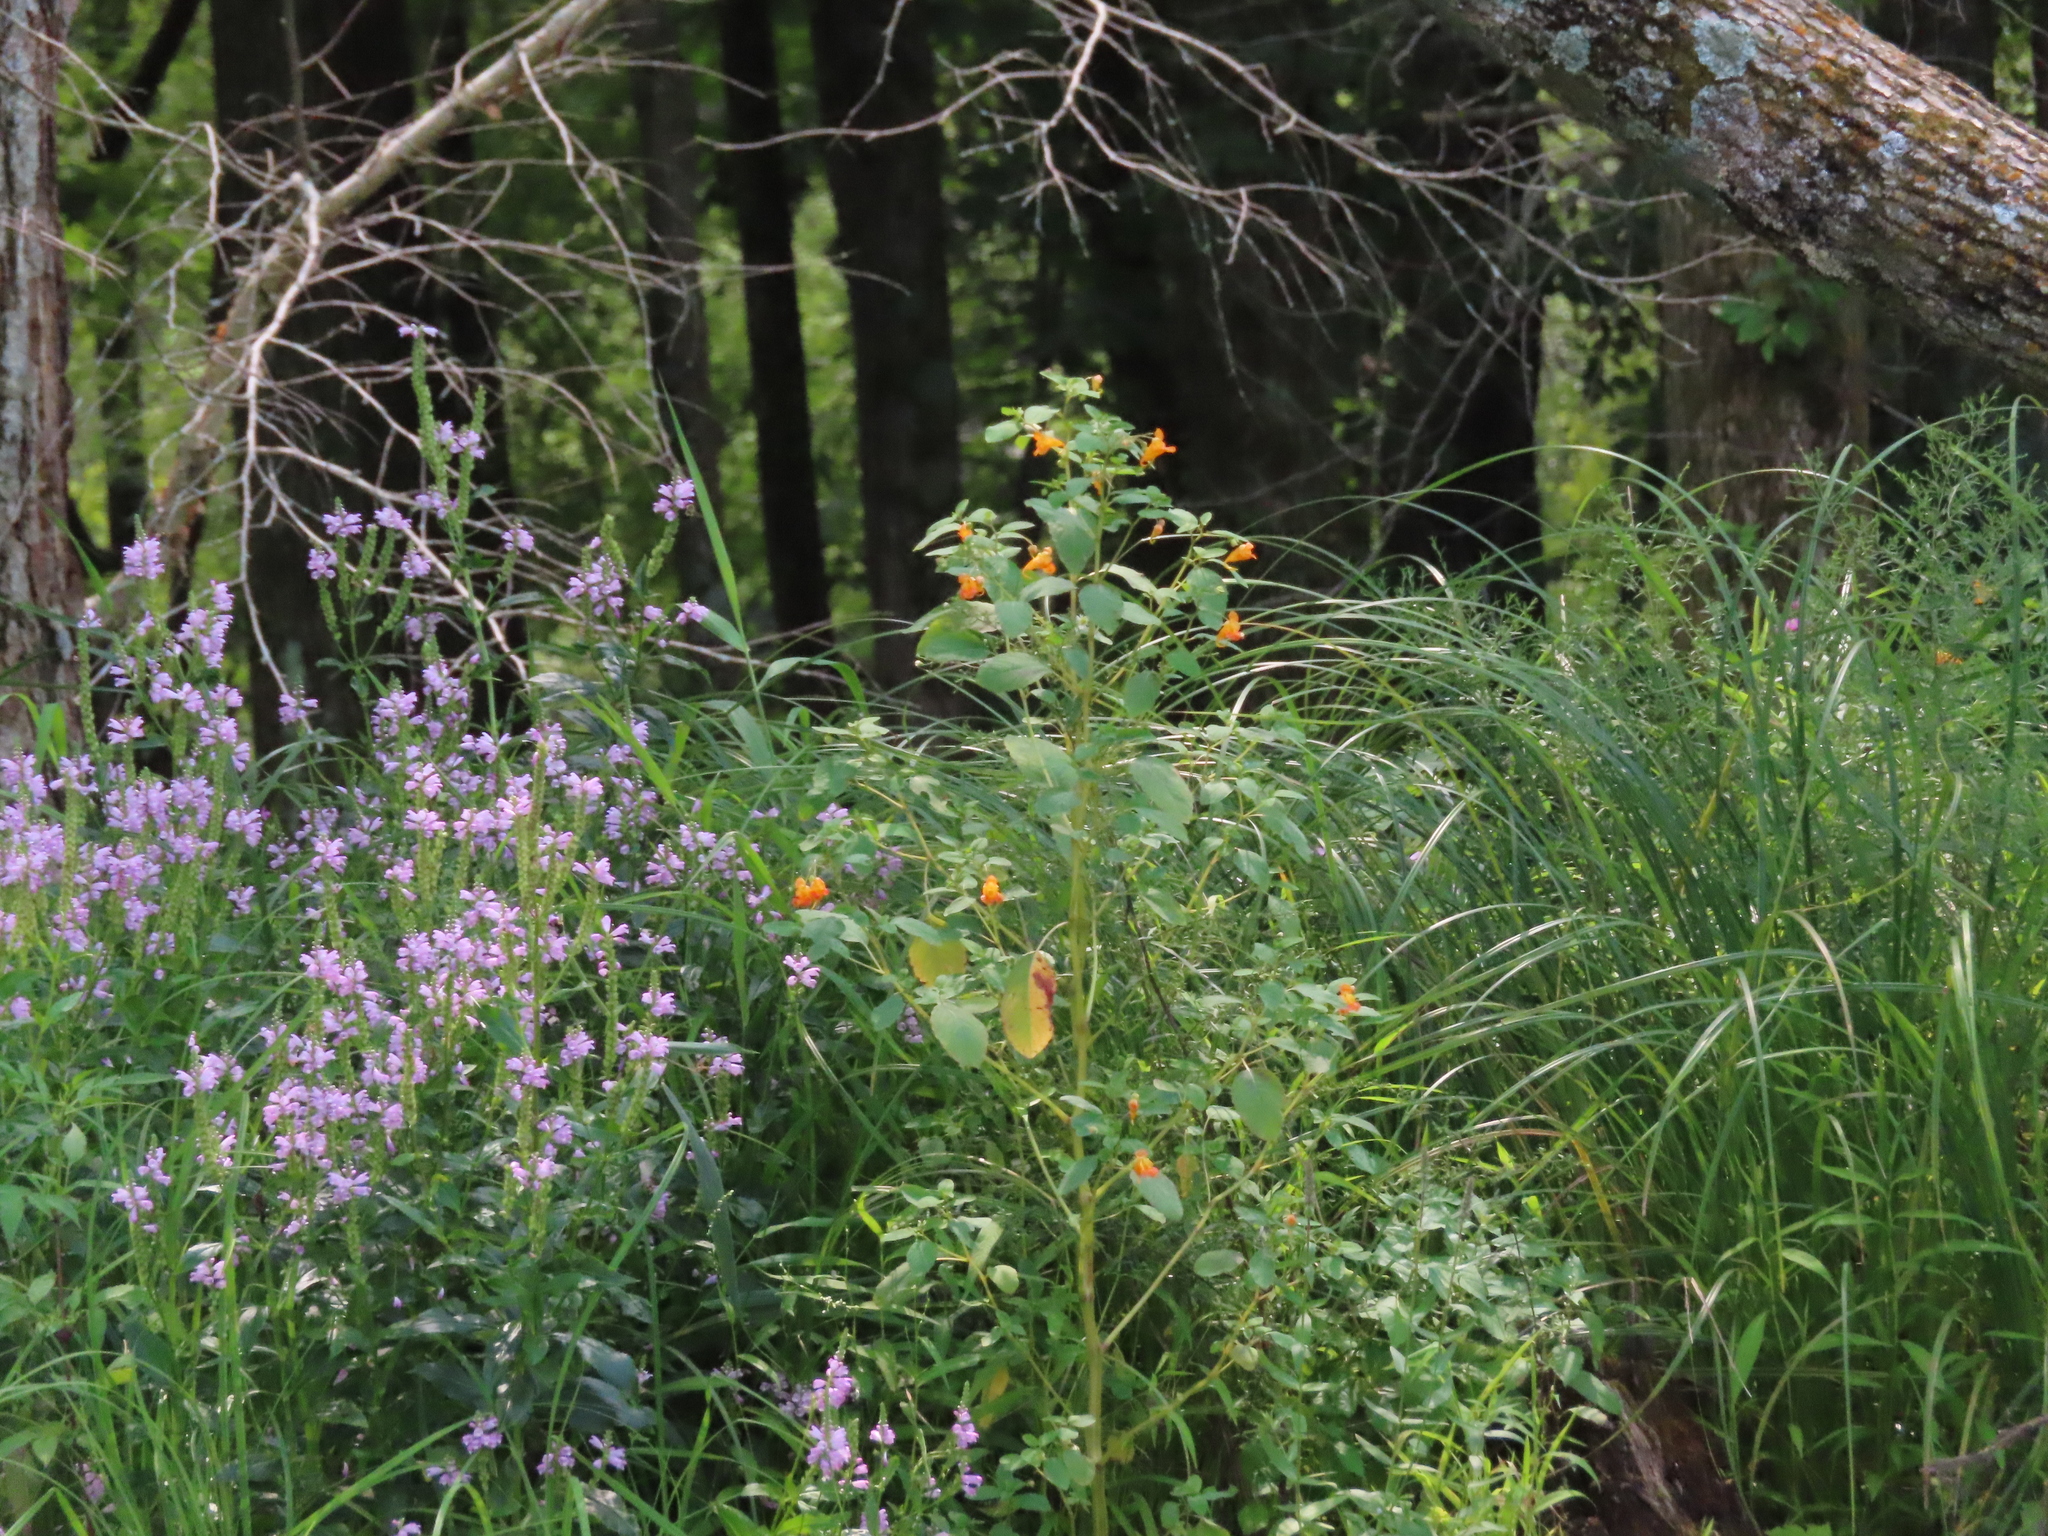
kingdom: Plantae
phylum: Tracheophyta
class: Magnoliopsida
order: Ericales
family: Balsaminaceae
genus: Impatiens
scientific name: Impatiens capensis
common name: Orange balsam
